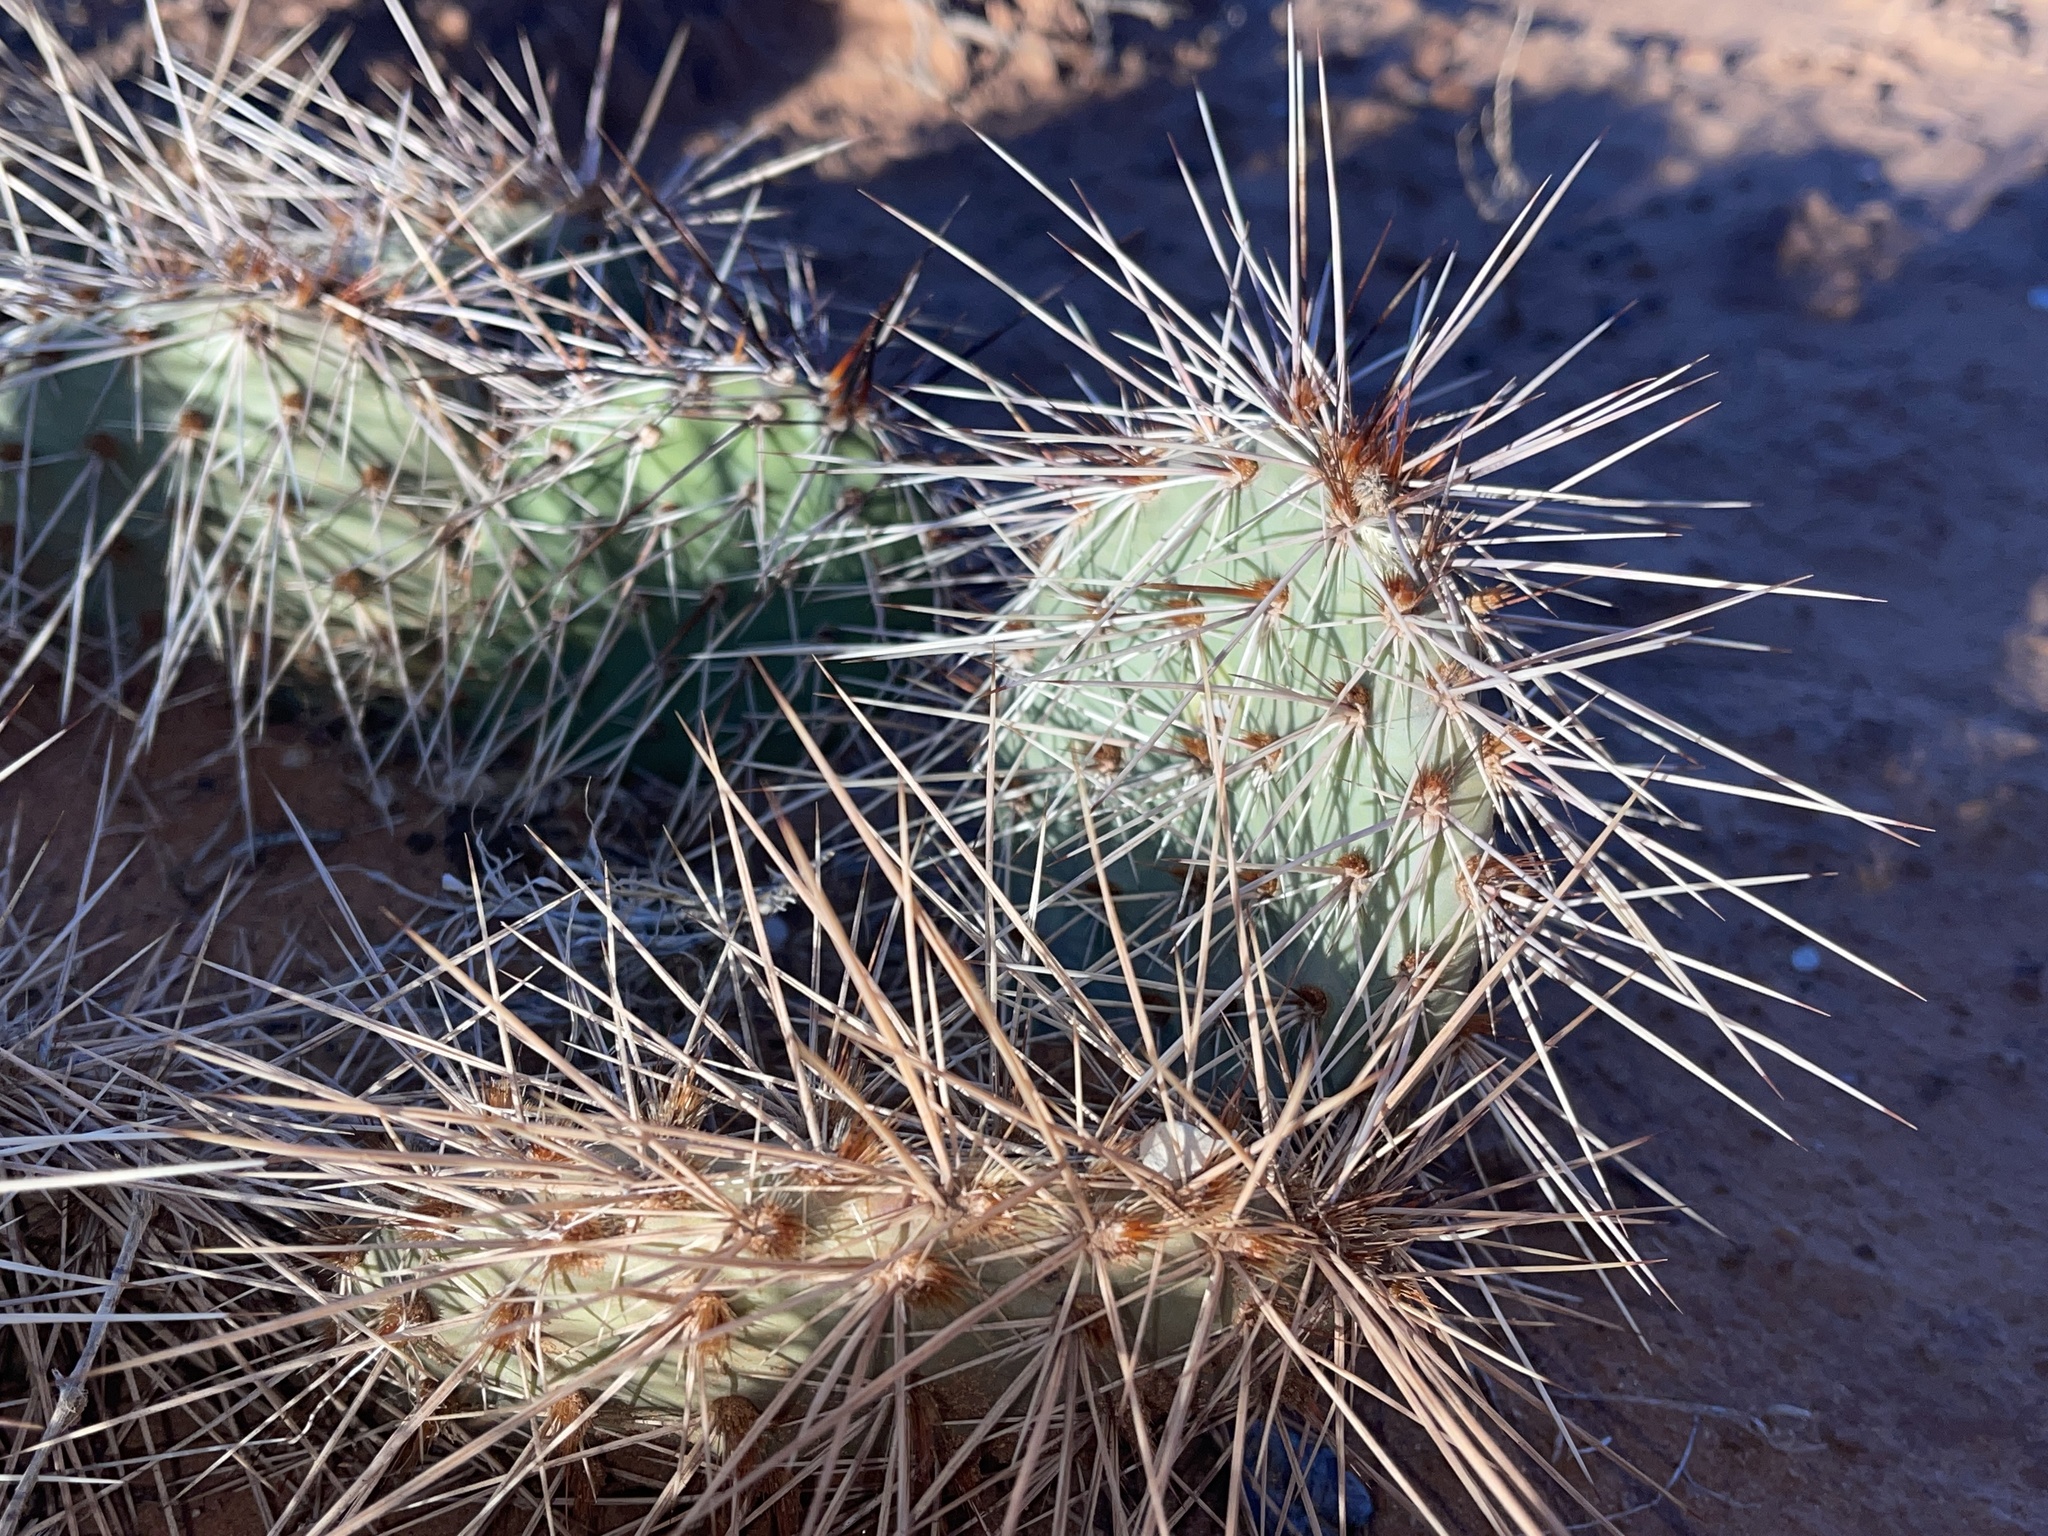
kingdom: Plantae
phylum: Tracheophyta
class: Magnoliopsida
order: Caryophyllales
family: Cactaceae
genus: Opuntia
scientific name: Opuntia polyacantha
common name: Plains prickly-pear
